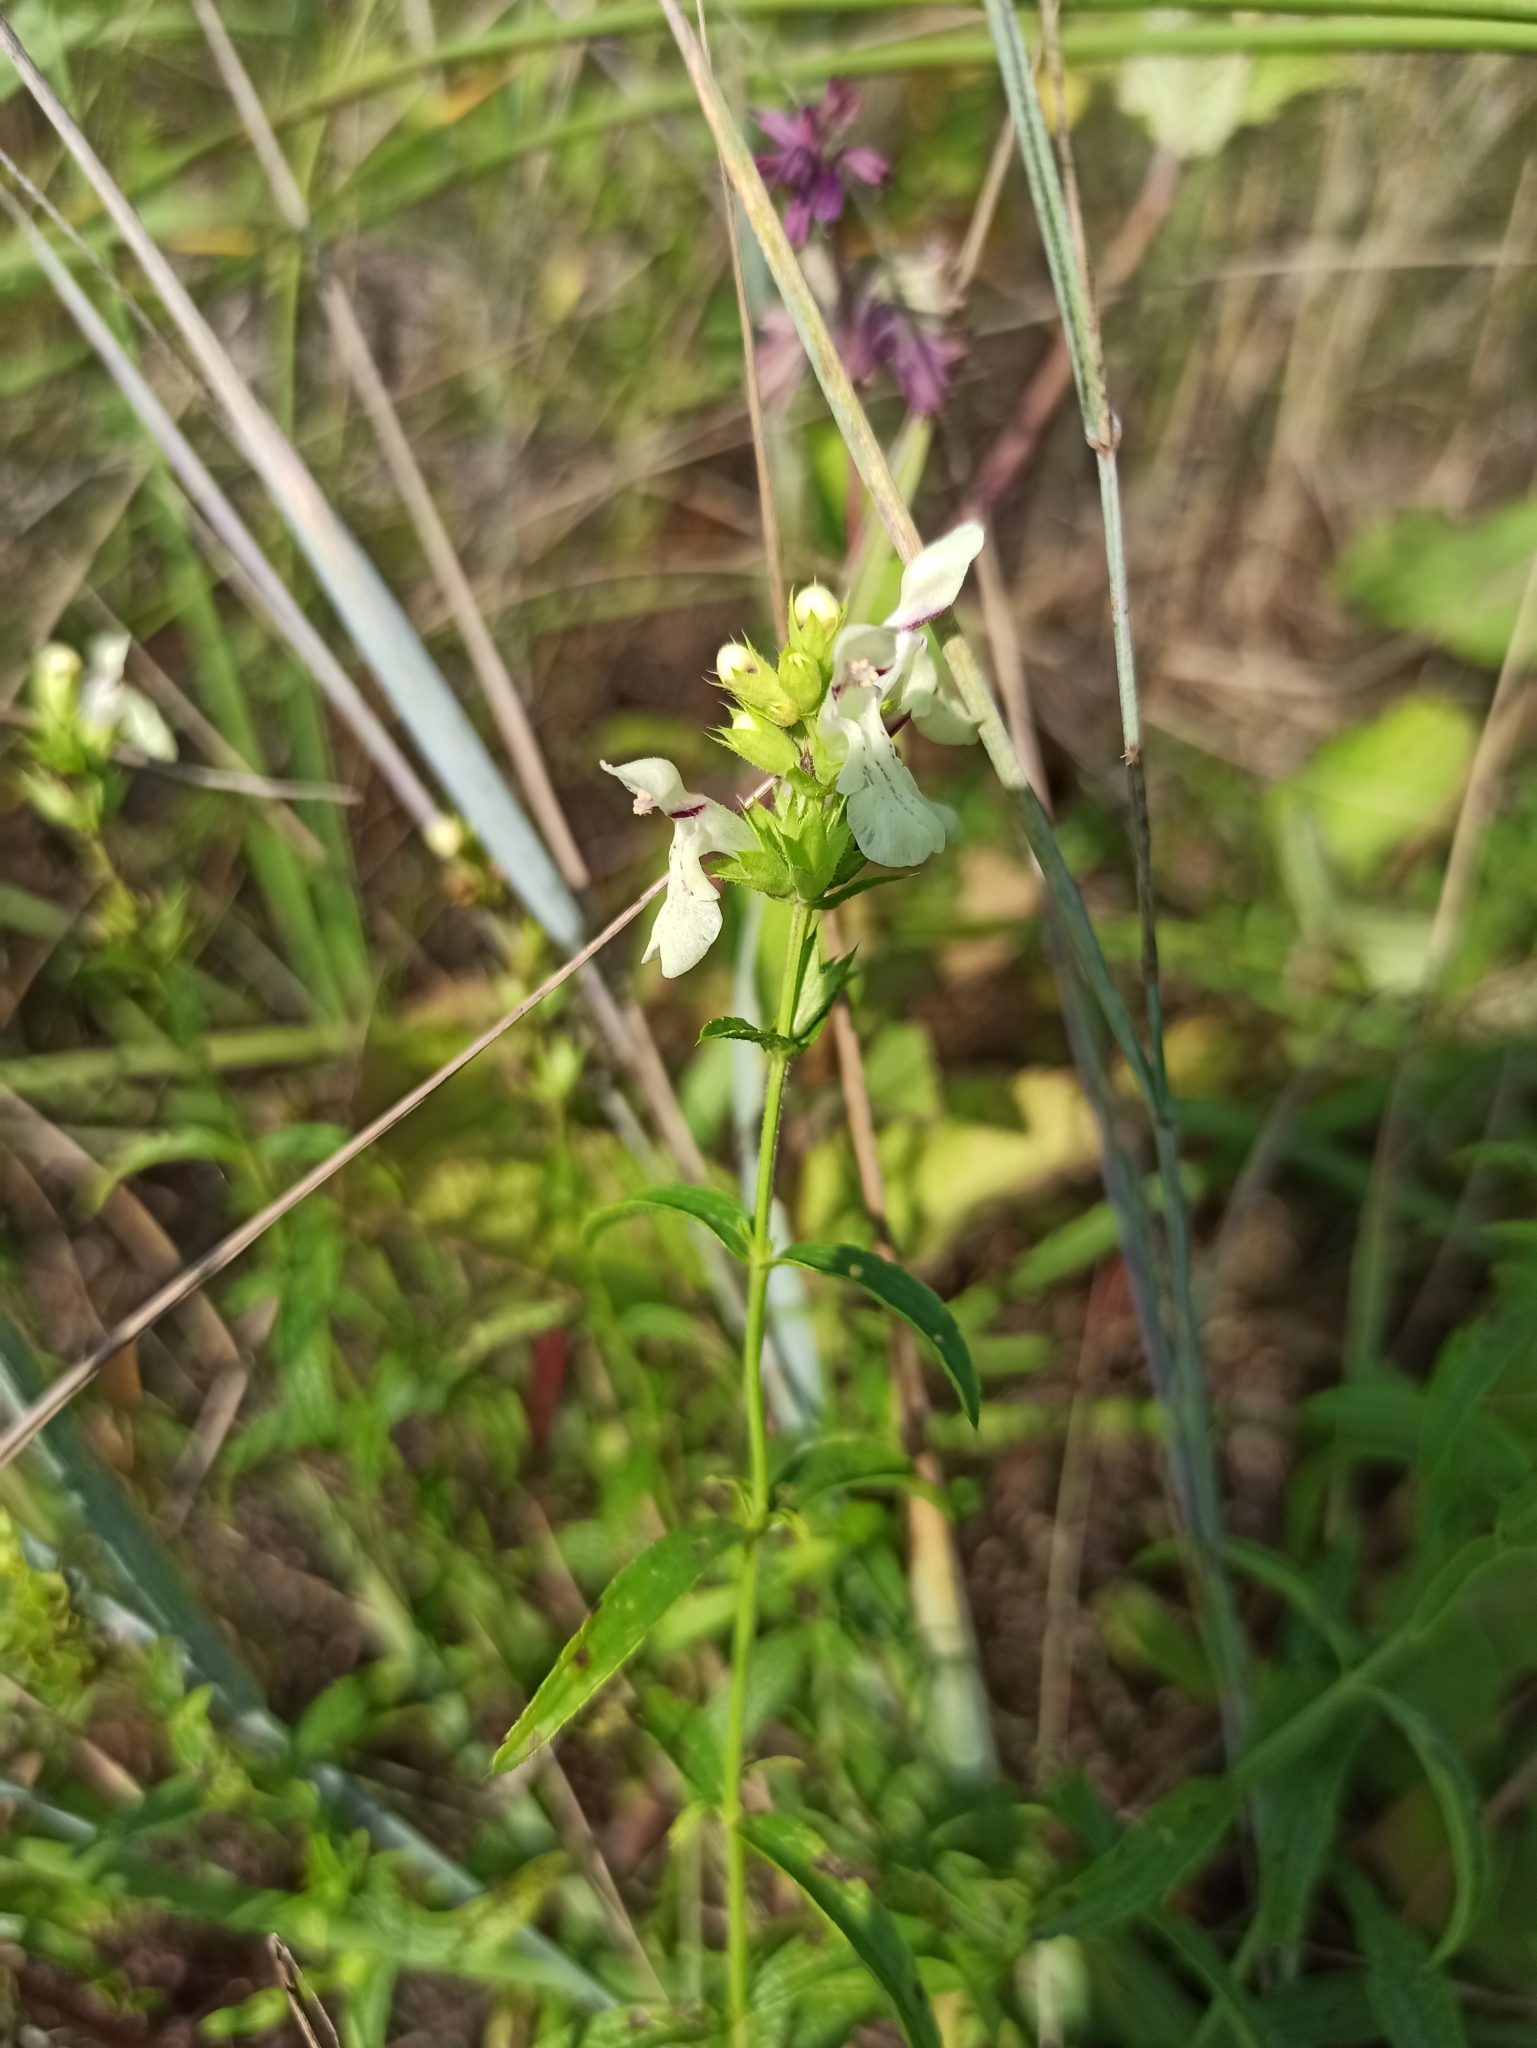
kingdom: Plantae
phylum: Tracheophyta
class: Magnoliopsida
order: Lamiales
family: Lamiaceae
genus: Stachys
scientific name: Stachys recta
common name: Perennial yellow-woundwort
